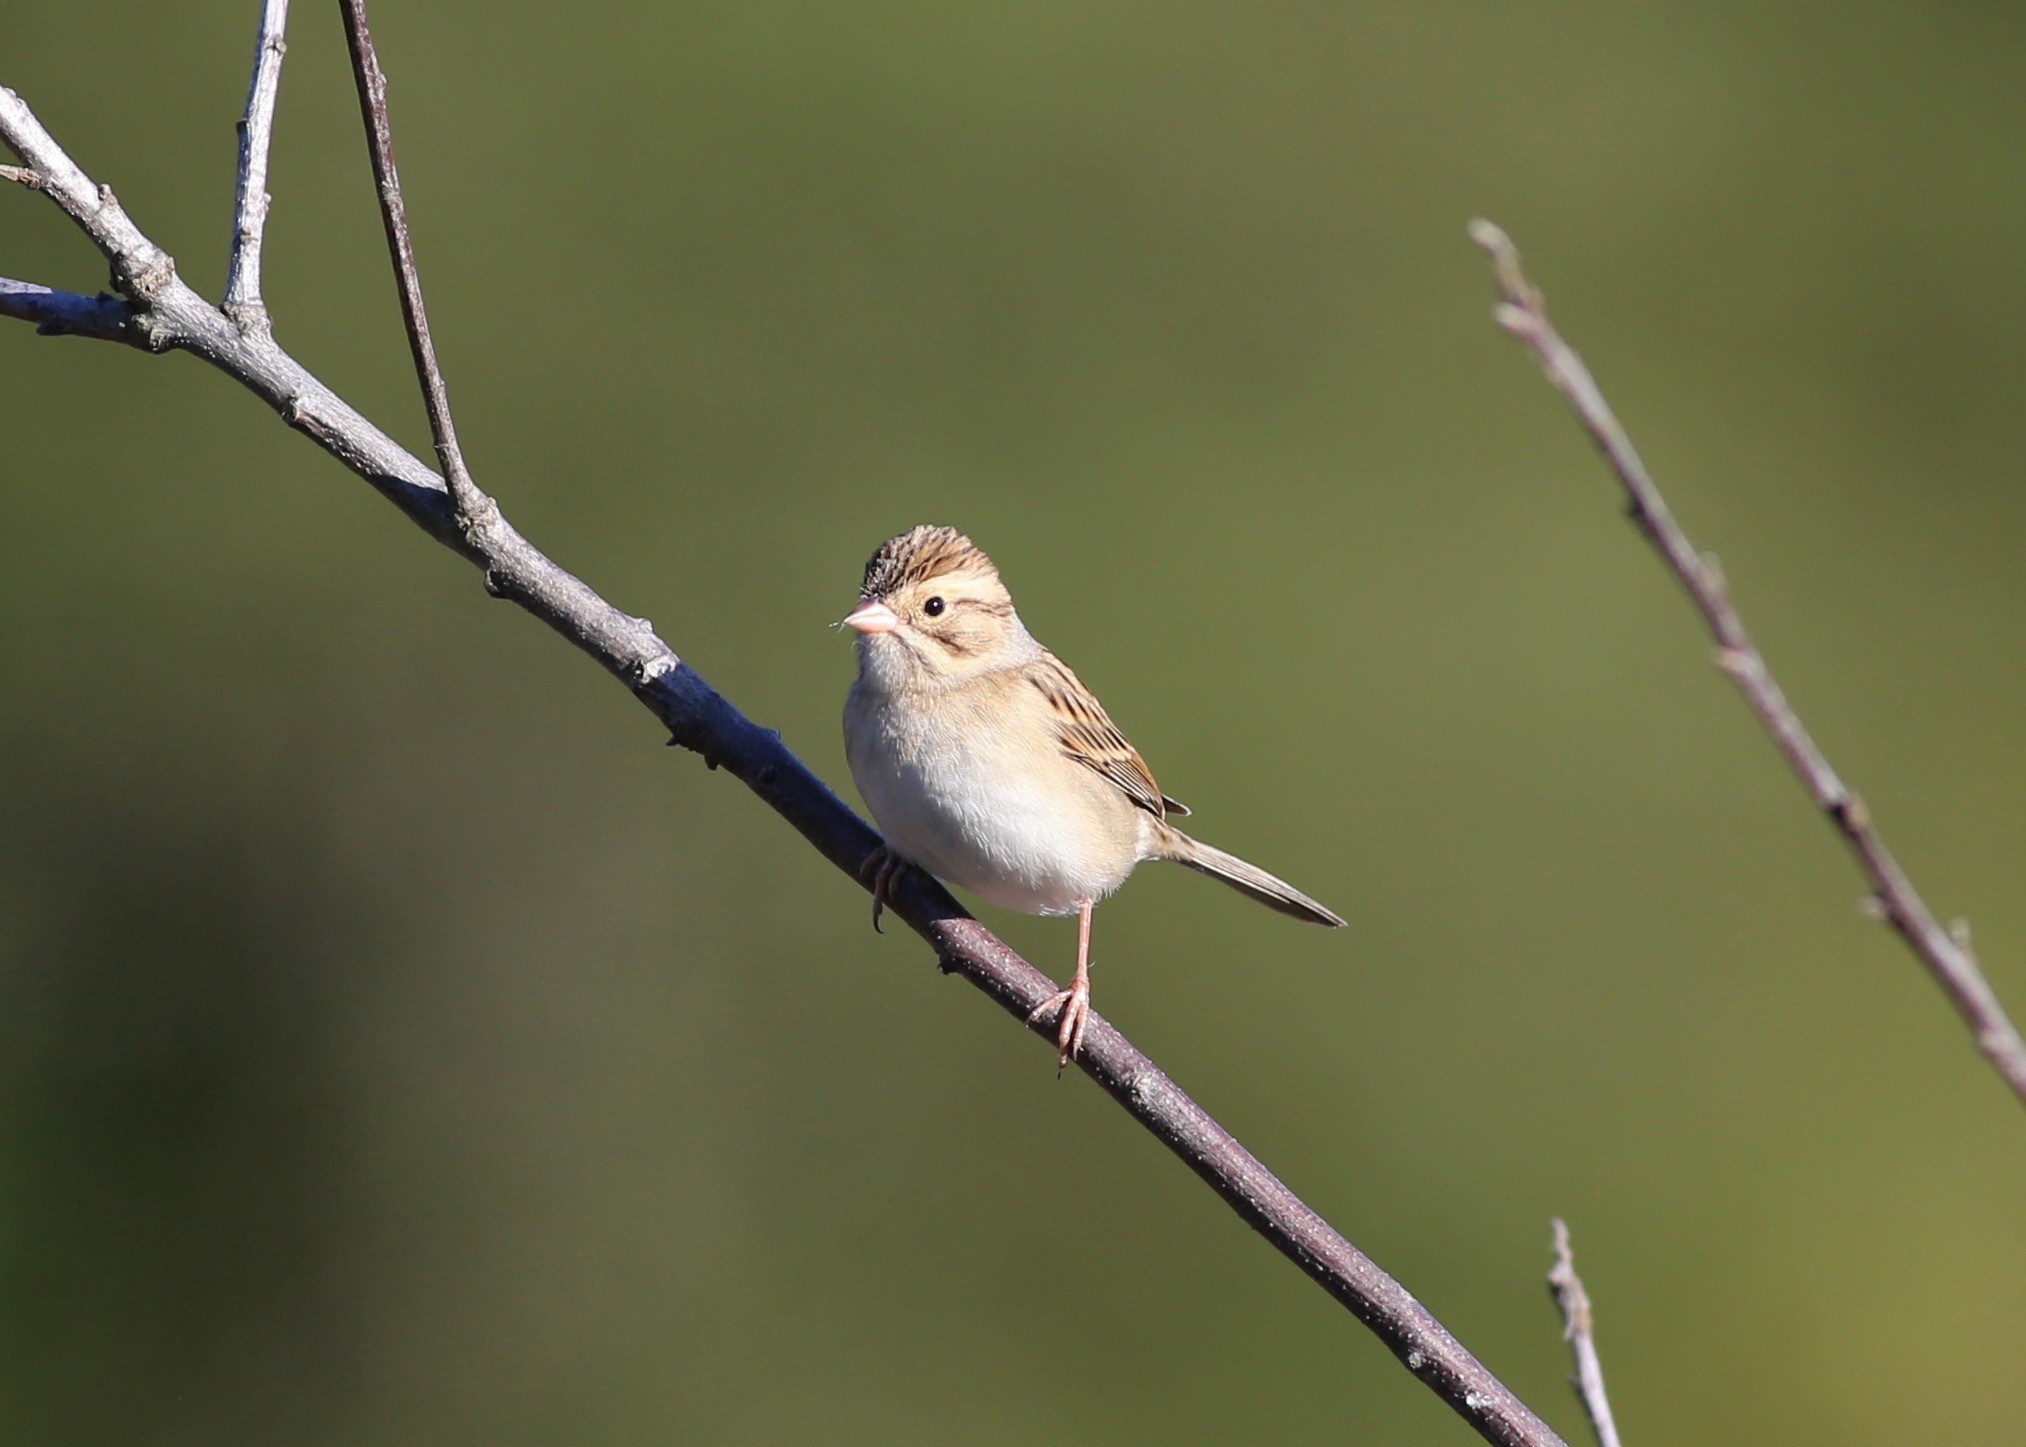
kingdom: Animalia
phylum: Chordata
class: Aves
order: Passeriformes
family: Passerellidae
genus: Spizella
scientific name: Spizella pallida
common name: Clay-colored sparrow
